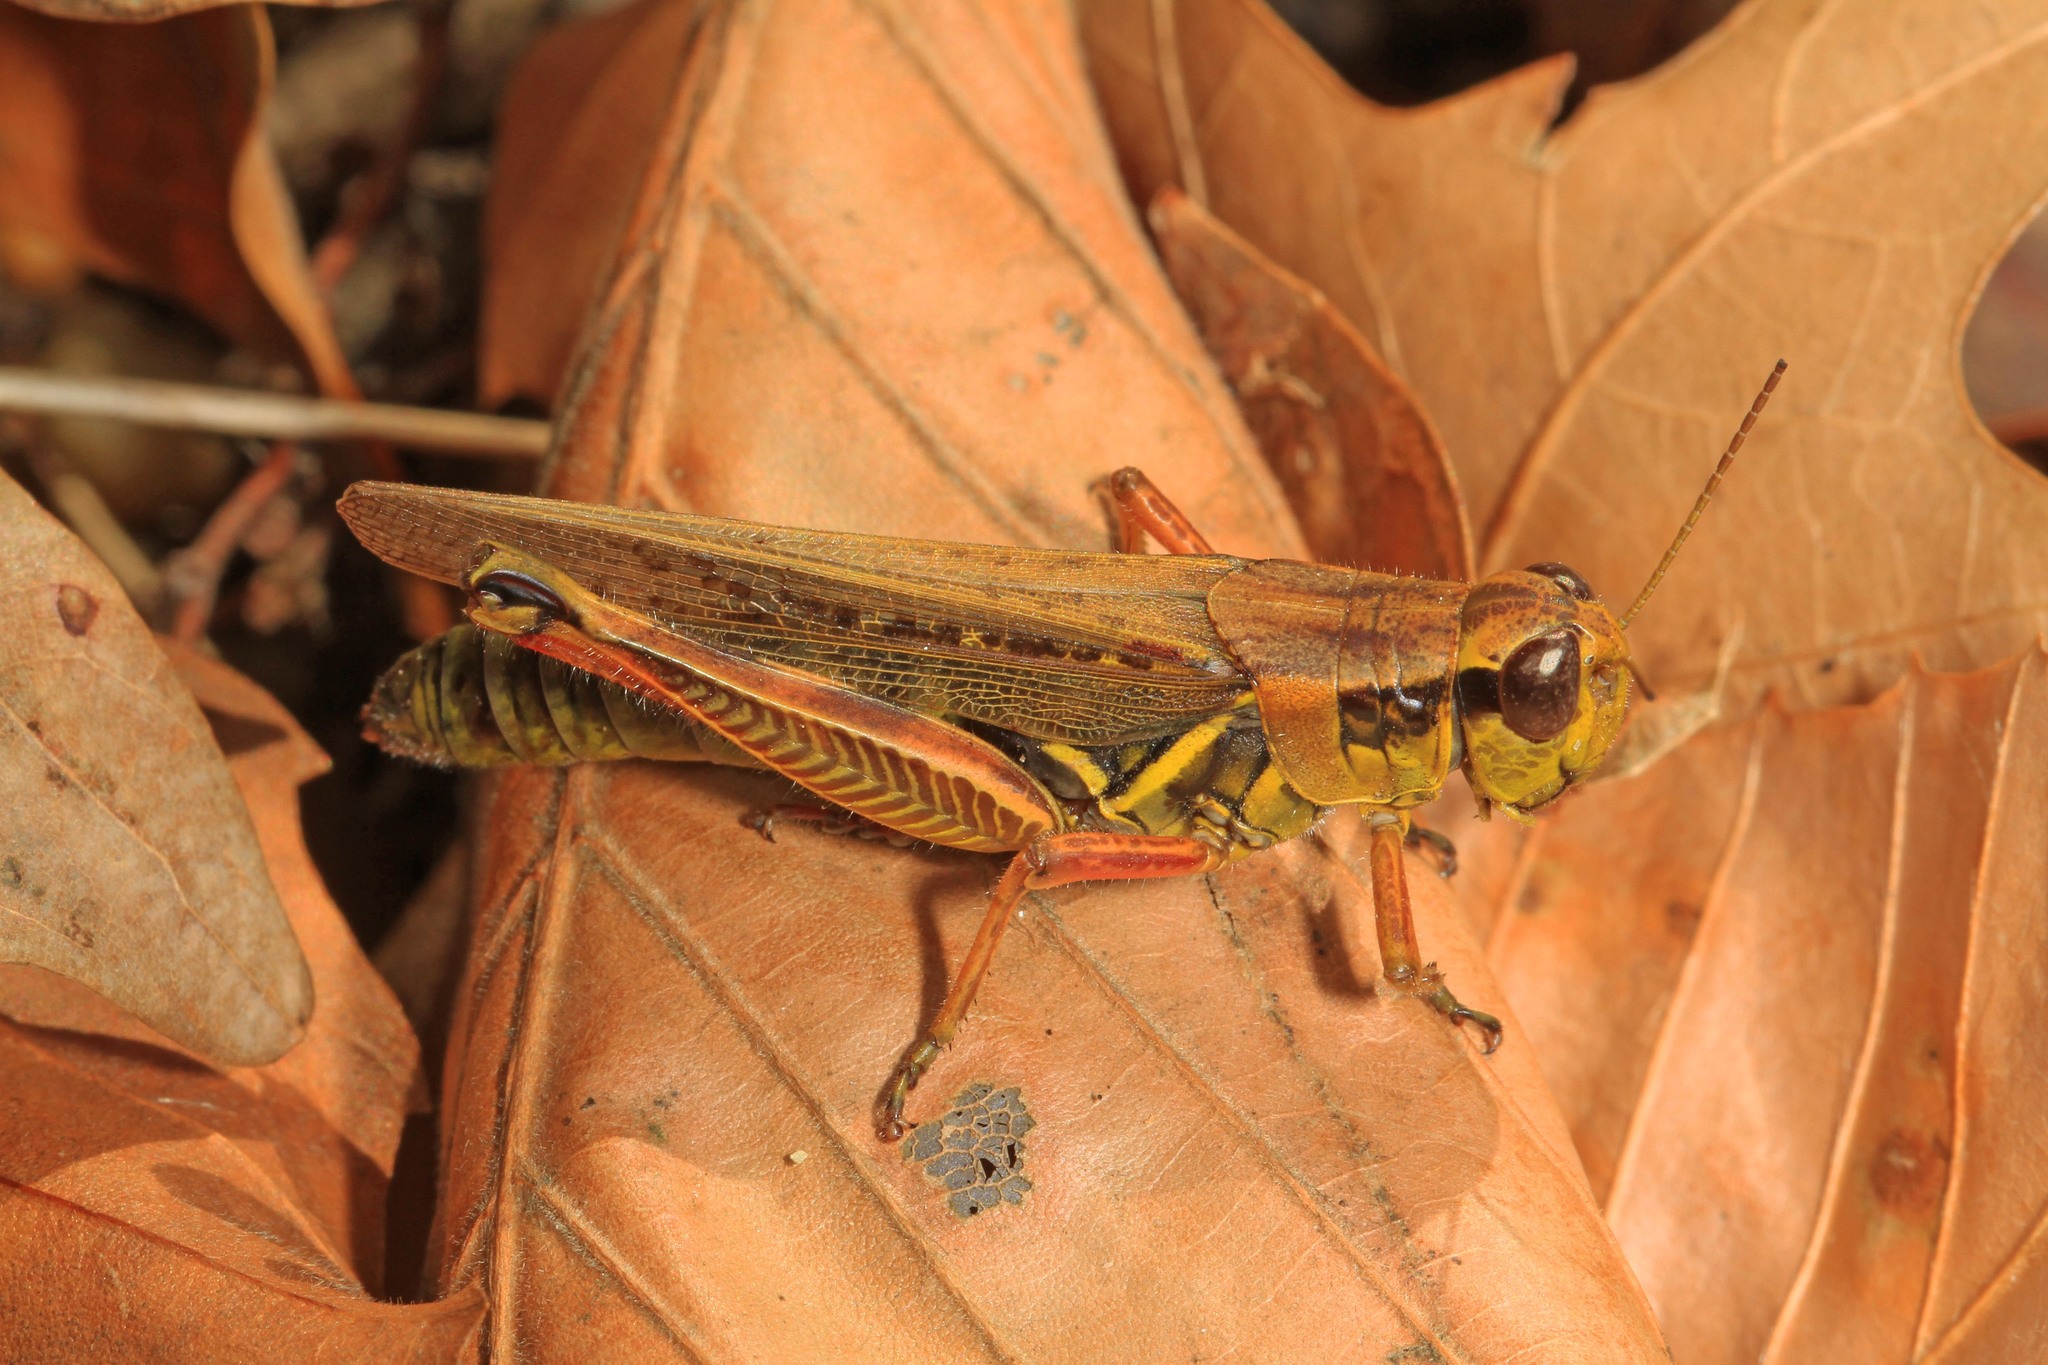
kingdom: Animalia
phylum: Arthropoda
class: Insecta
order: Orthoptera
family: Acrididae
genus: Melanoplus
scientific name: Melanoplus femurrubrum
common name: Red-legged grasshopper
